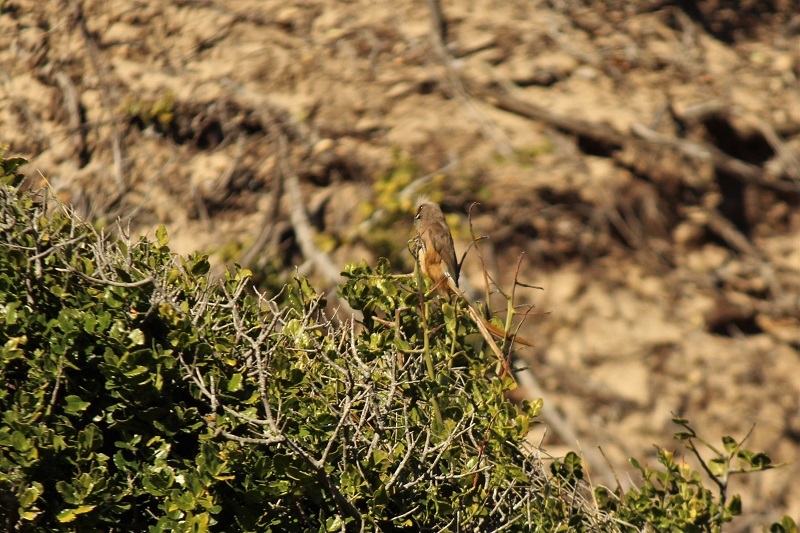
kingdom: Animalia
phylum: Chordata
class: Aves
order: Coliiformes
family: Coliidae
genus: Colius
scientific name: Colius striatus
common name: Speckled mousebird
